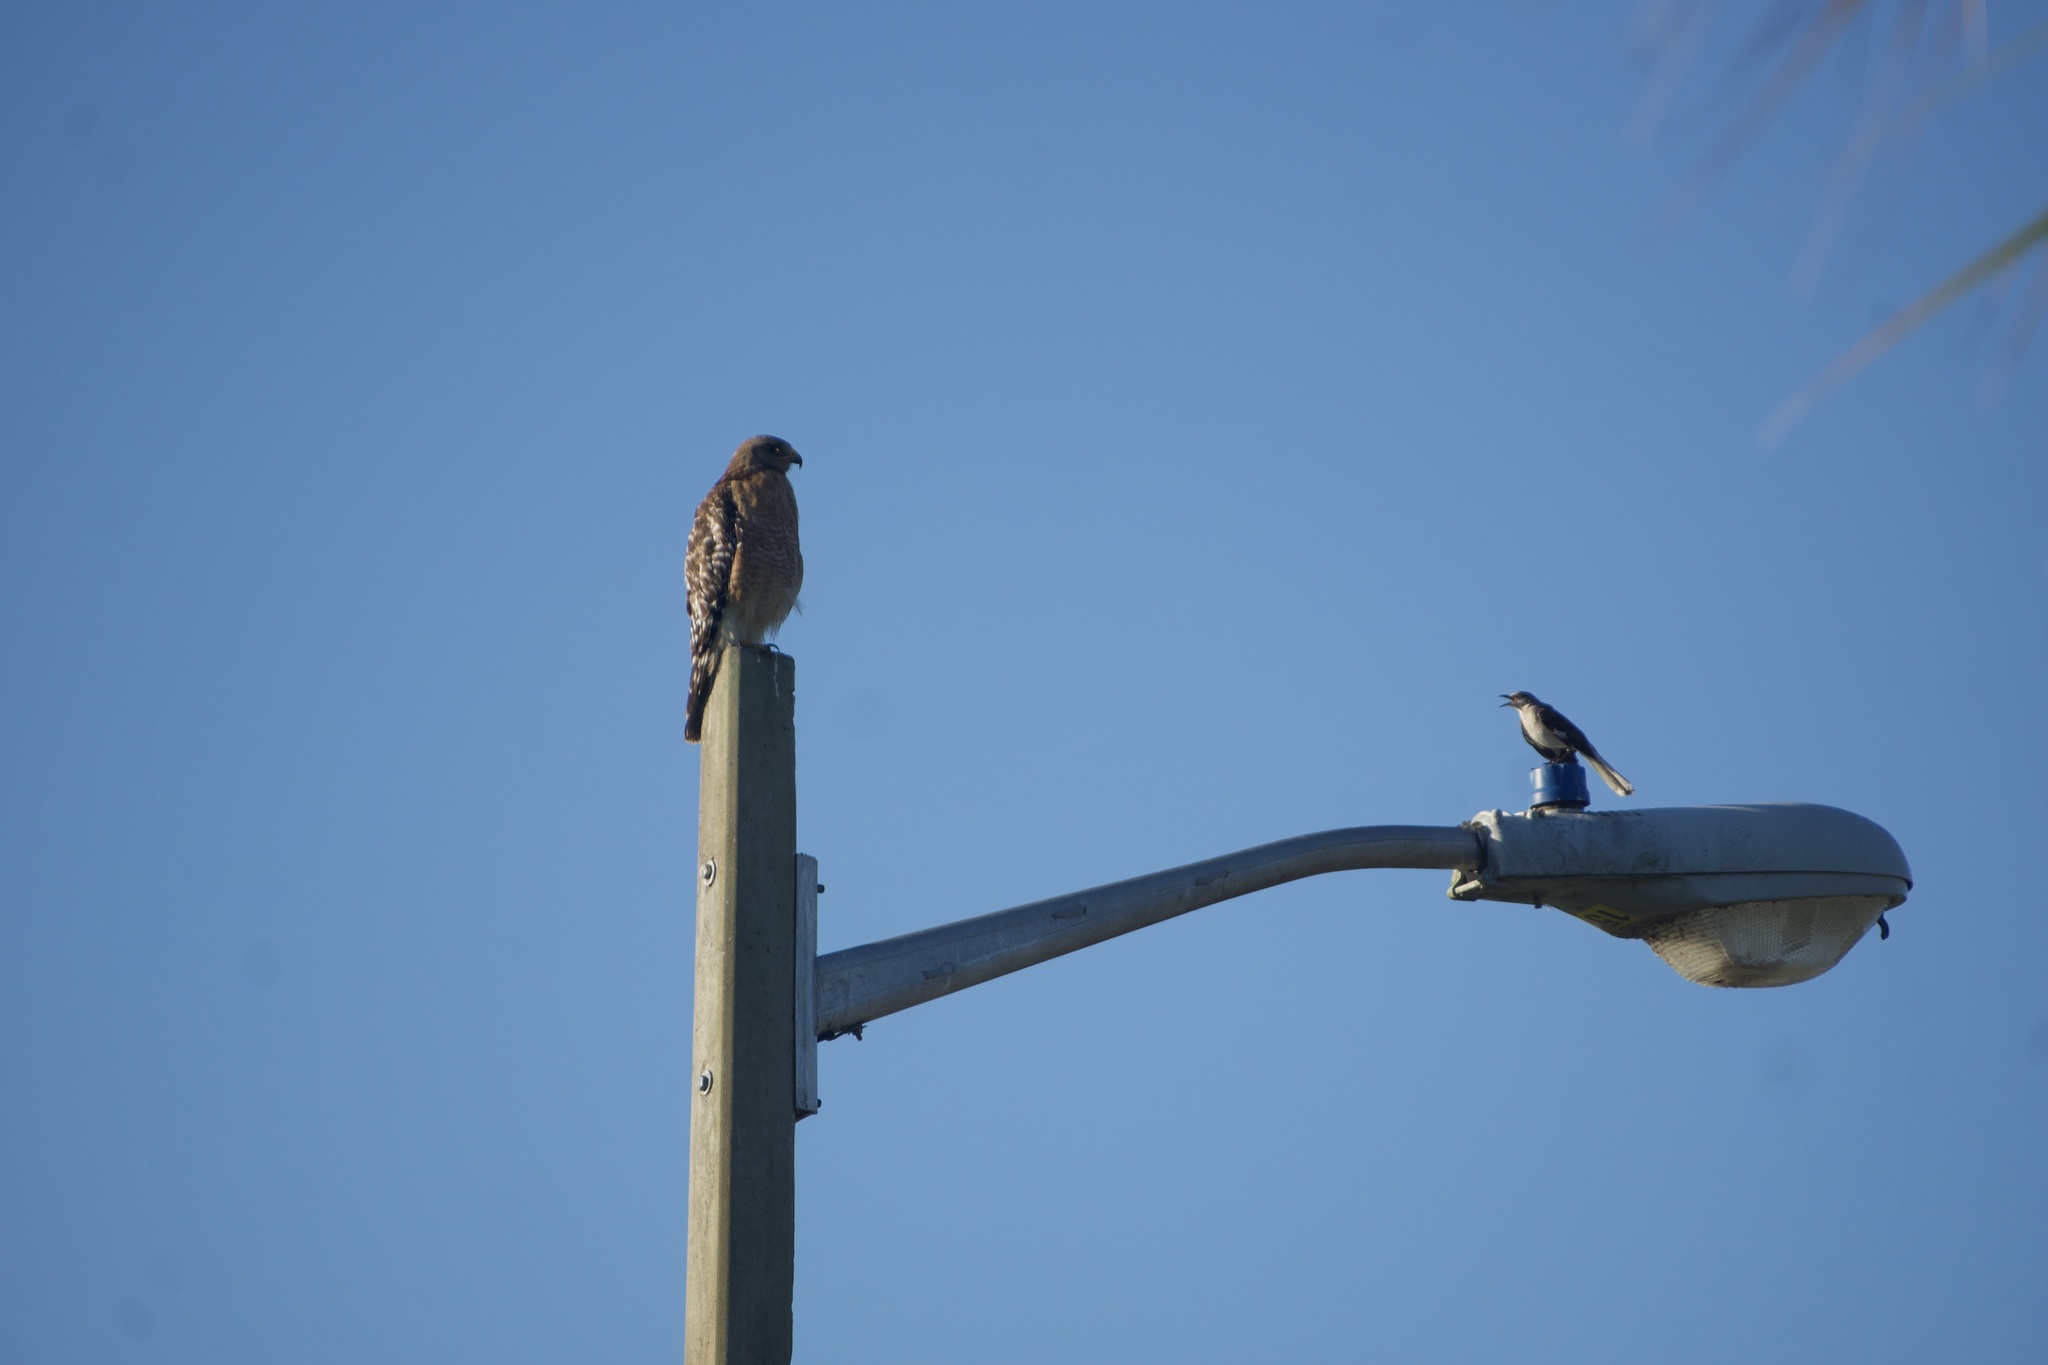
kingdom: Animalia
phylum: Chordata
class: Aves
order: Passeriformes
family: Mimidae
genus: Mimus
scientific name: Mimus polyglottos
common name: Northern mockingbird
